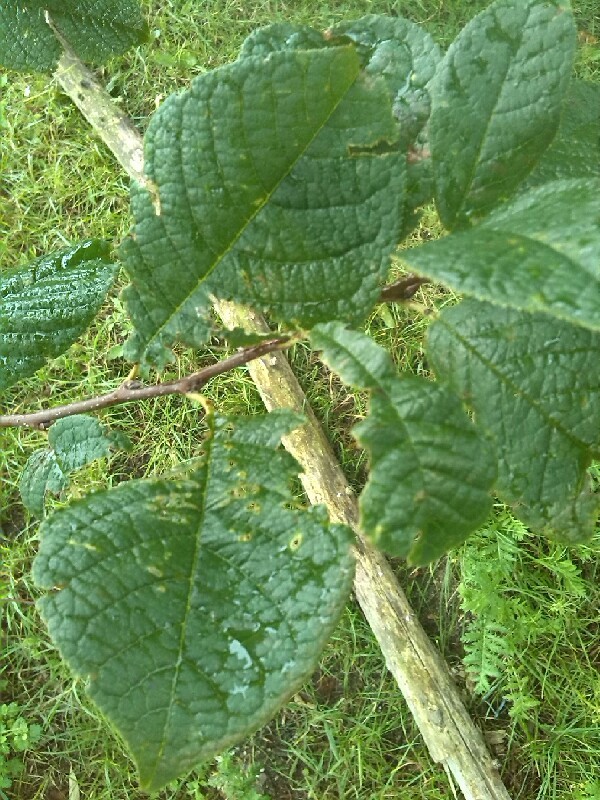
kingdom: Plantae
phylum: Tracheophyta
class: Magnoliopsida
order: Rosales
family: Rosaceae
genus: Aria
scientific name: Aria edulis
